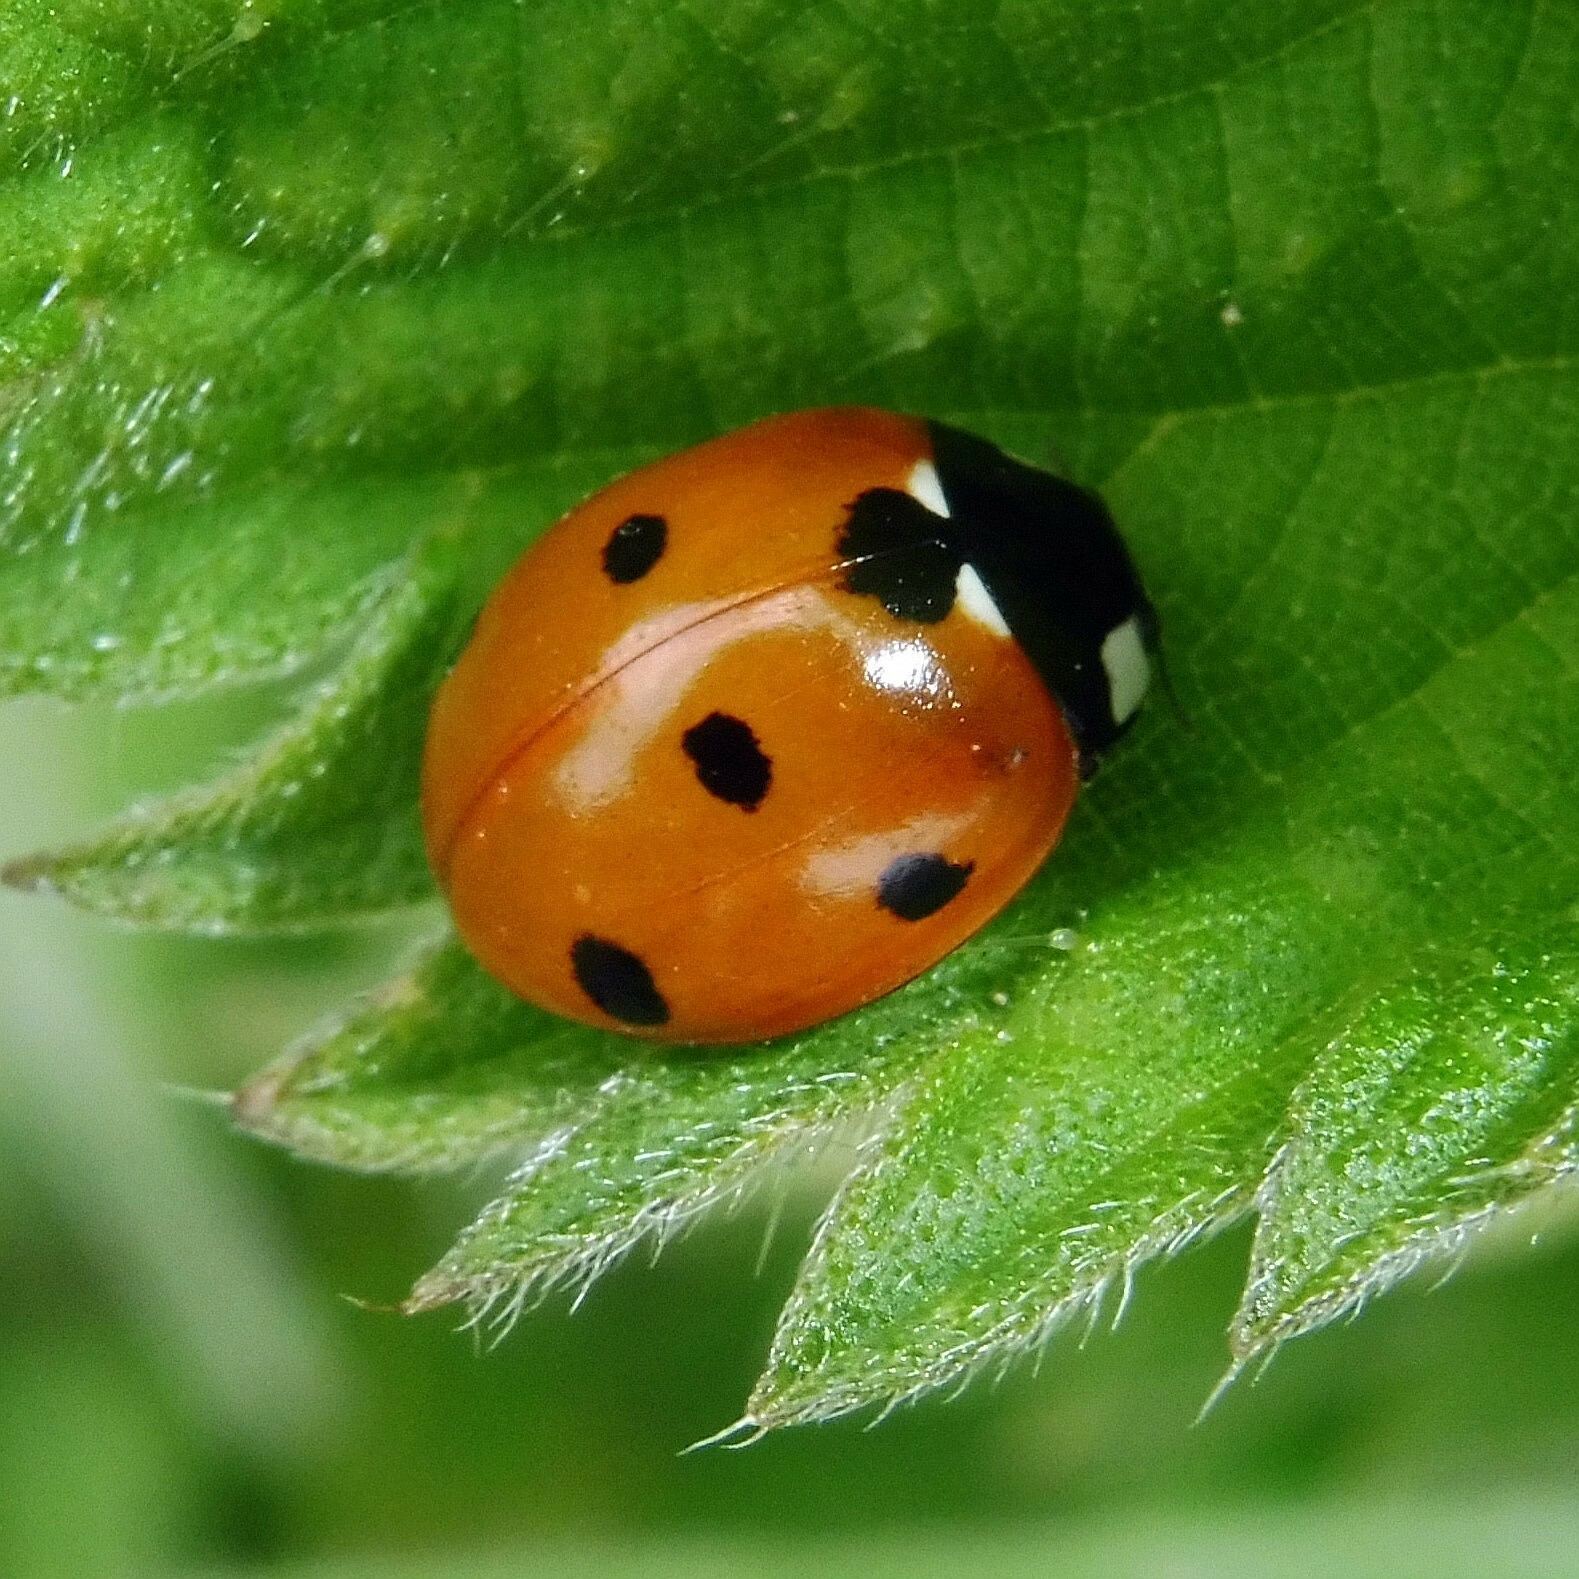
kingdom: Animalia
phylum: Arthropoda
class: Insecta
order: Coleoptera
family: Coccinellidae
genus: Coccinella
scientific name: Coccinella septempunctata
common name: Sevenspotted lady beetle
